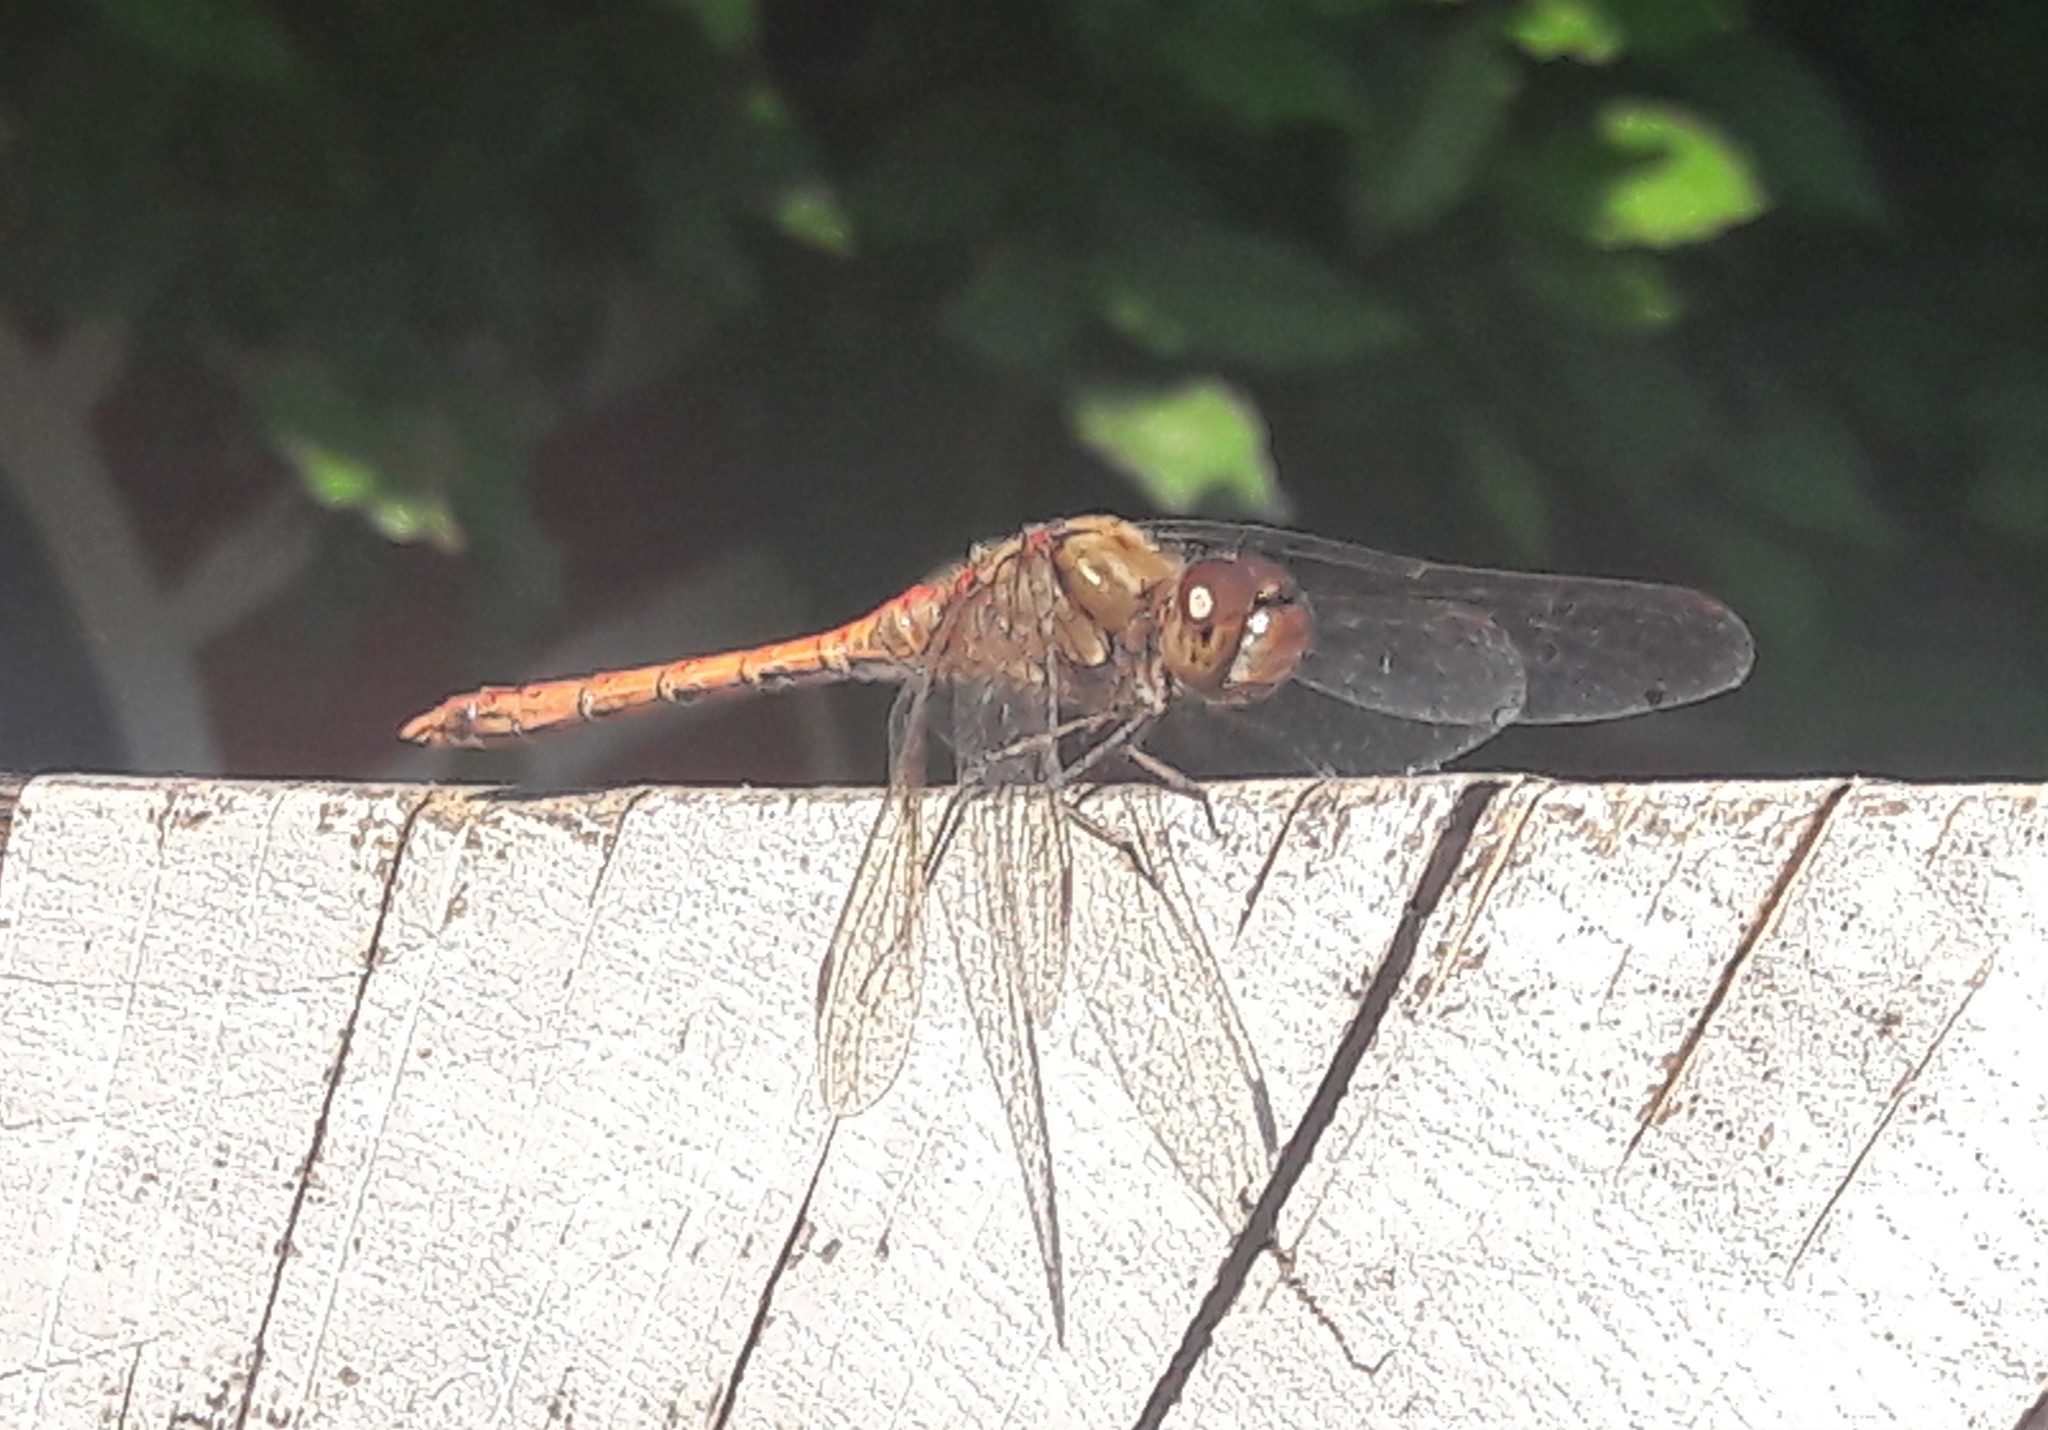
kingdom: Animalia
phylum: Arthropoda
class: Insecta
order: Odonata
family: Libellulidae
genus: Sympetrum
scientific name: Sympetrum striolatum
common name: Common darter
